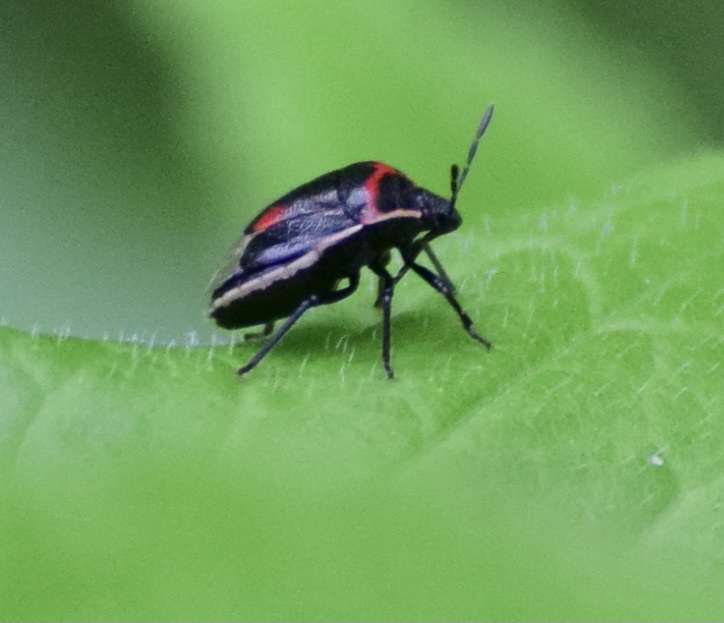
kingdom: Animalia
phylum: Arthropoda
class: Insecta
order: Hemiptera
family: Pentatomidae
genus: Cosmopepla
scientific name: Cosmopepla lintneriana
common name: Twice-stabbed stink bug
